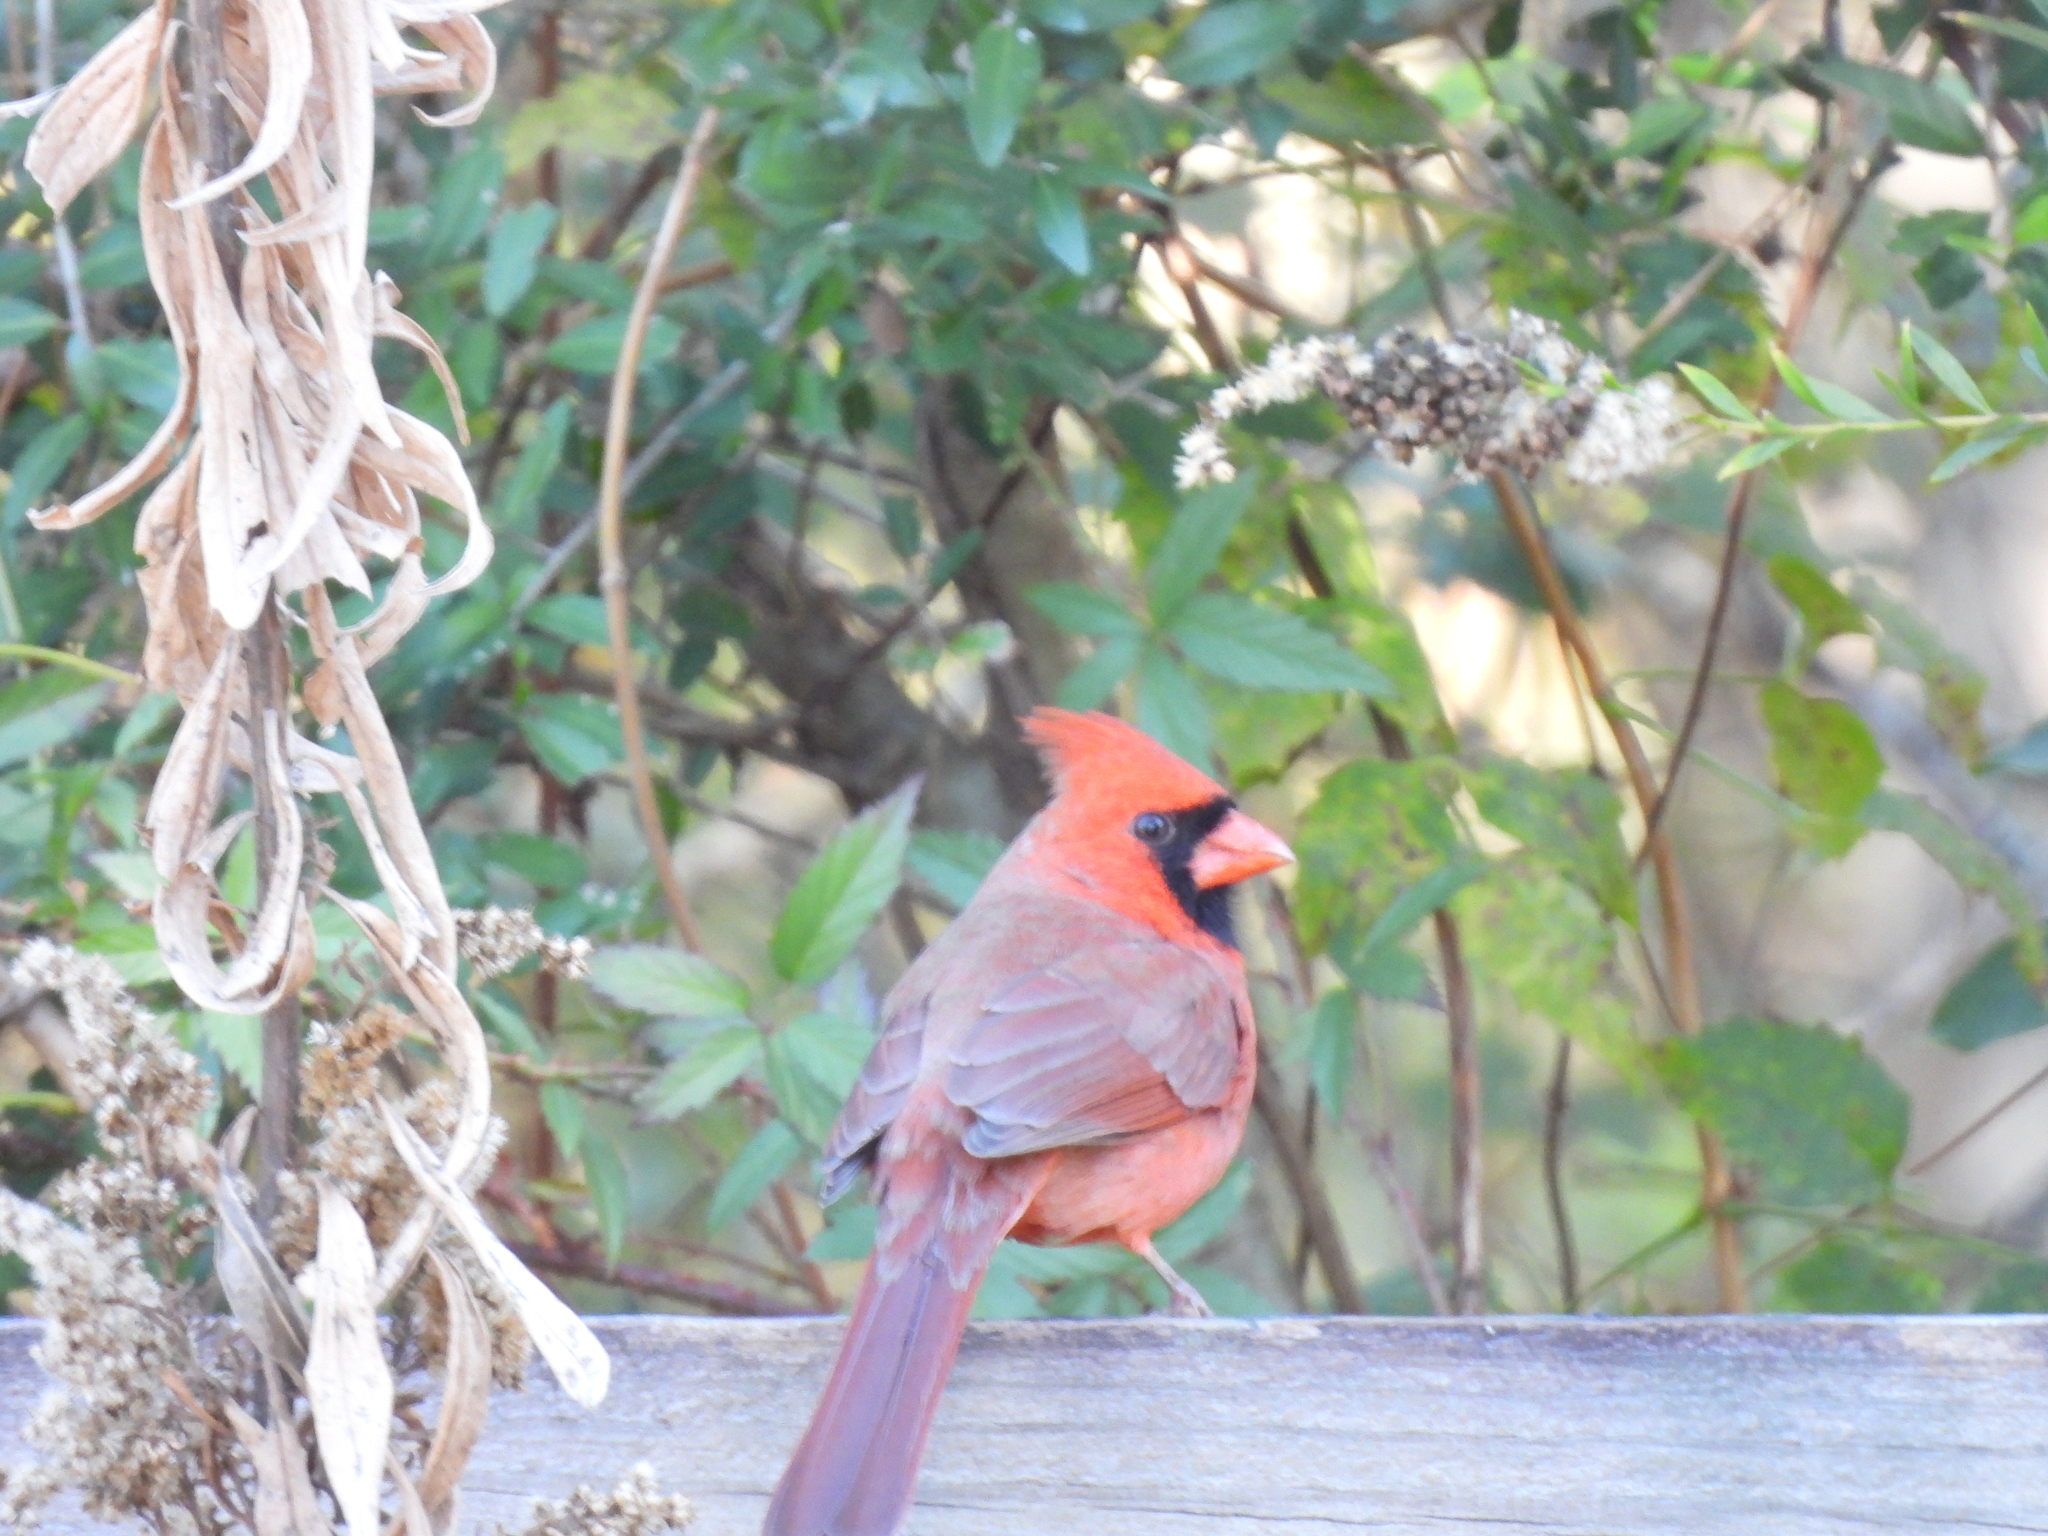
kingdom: Animalia
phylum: Chordata
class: Aves
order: Passeriformes
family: Cardinalidae
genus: Cardinalis
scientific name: Cardinalis cardinalis
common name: Northern cardinal
